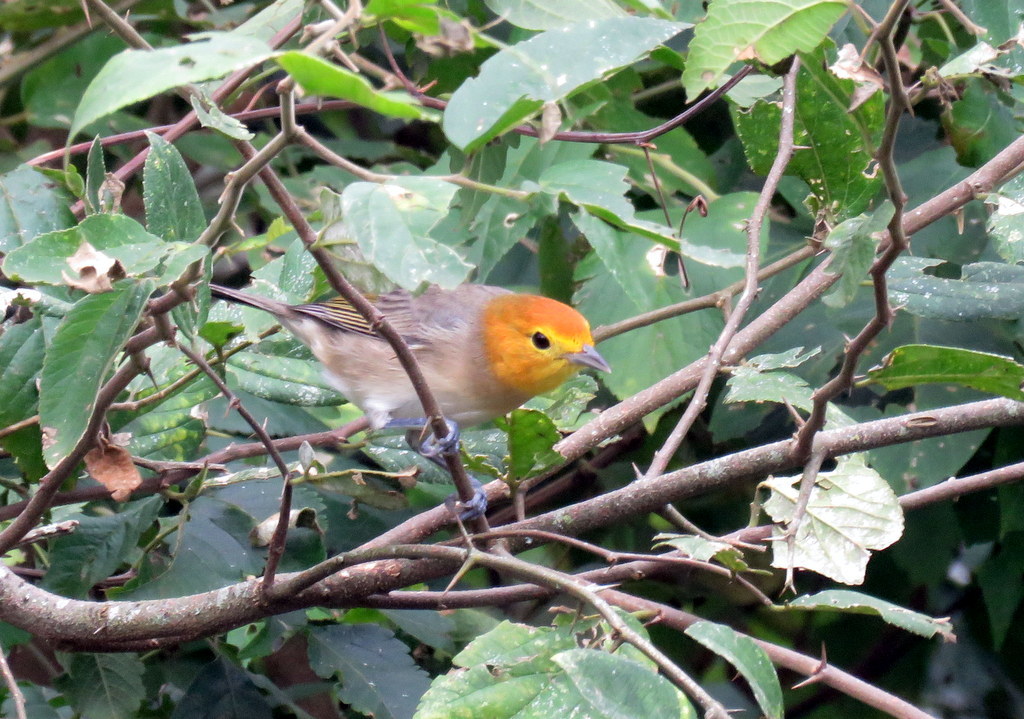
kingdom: Animalia
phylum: Chordata
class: Aves
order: Passeriformes
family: Thraupidae
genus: Thlypopsis
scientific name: Thlypopsis sordida
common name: Orange-headed tanager
